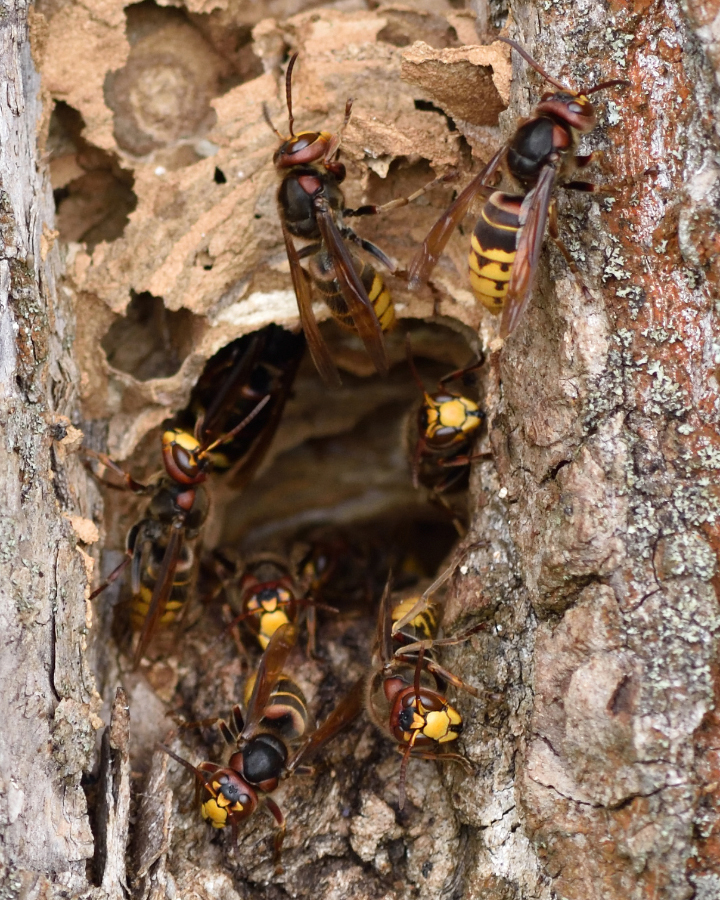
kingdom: Animalia
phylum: Arthropoda
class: Insecta
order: Hymenoptera
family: Vespidae
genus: Vespa
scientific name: Vespa crabro
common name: Hornet
